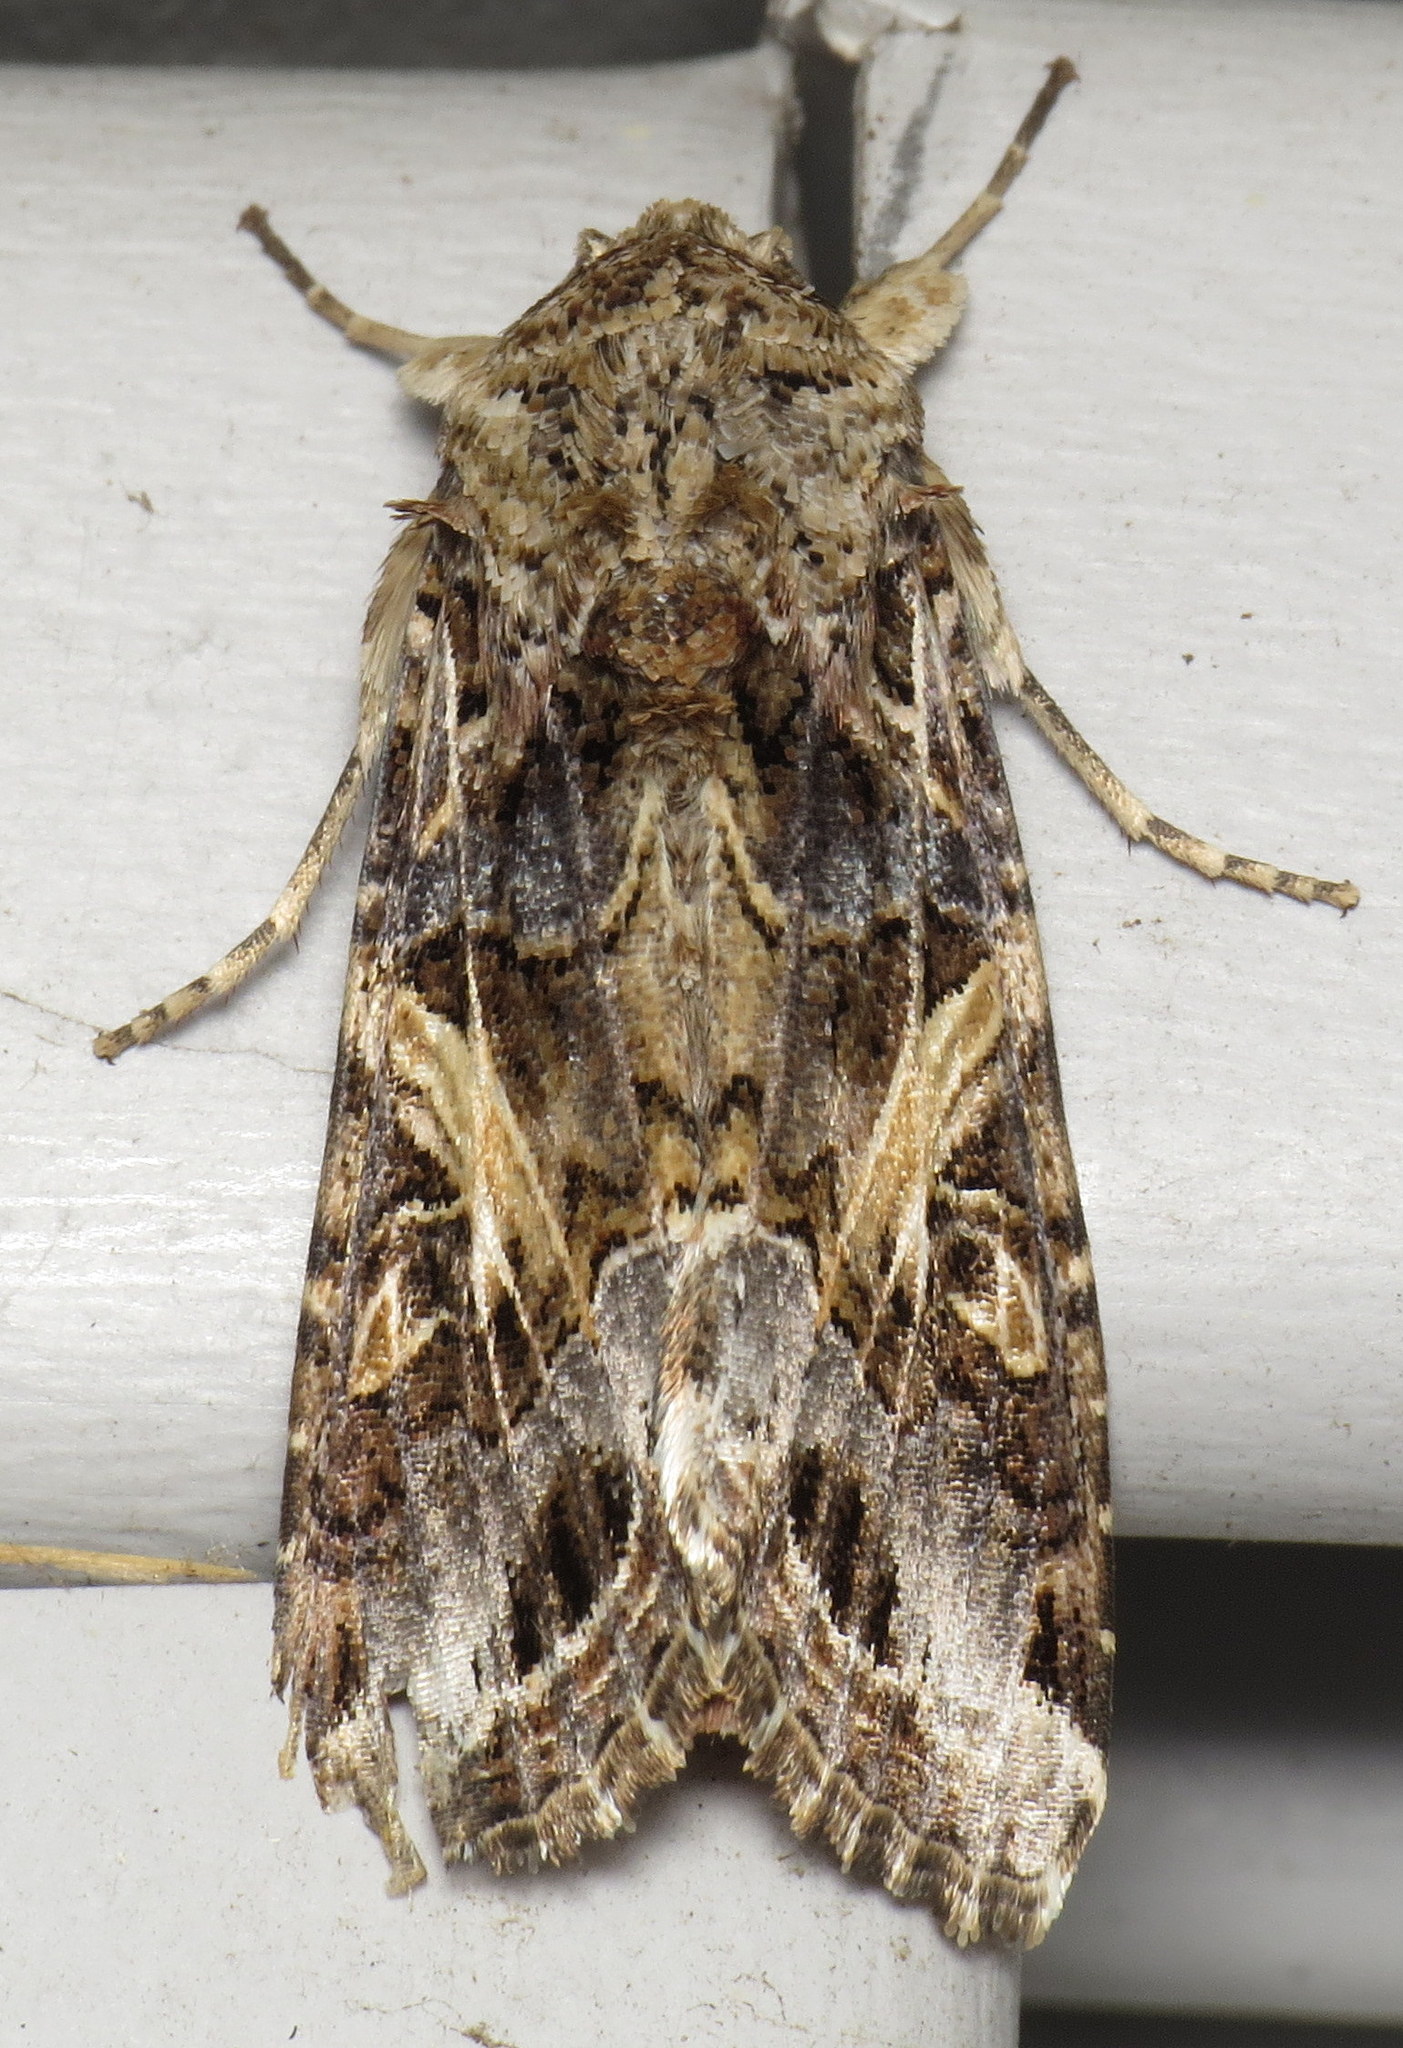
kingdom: Animalia
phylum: Arthropoda
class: Insecta
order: Lepidoptera
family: Noctuidae
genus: Spodoptera
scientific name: Spodoptera ornithogalli
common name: Yellow-striped armyworm
